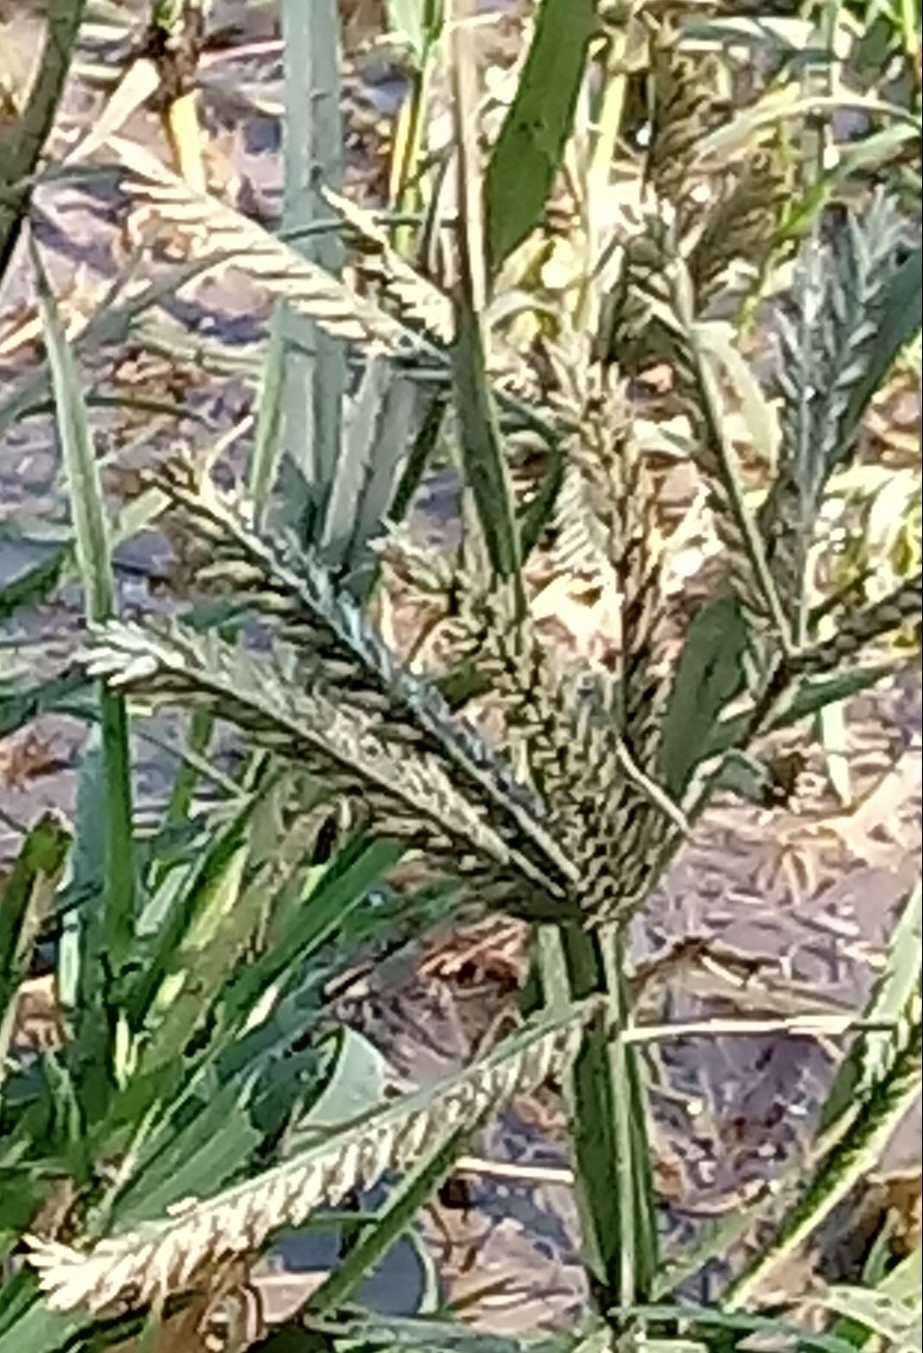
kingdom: Plantae
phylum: Tracheophyta
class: Liliopsida
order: Poales
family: Poaceae
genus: Eleusine
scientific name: Eleusine indica
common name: Yard-grass
